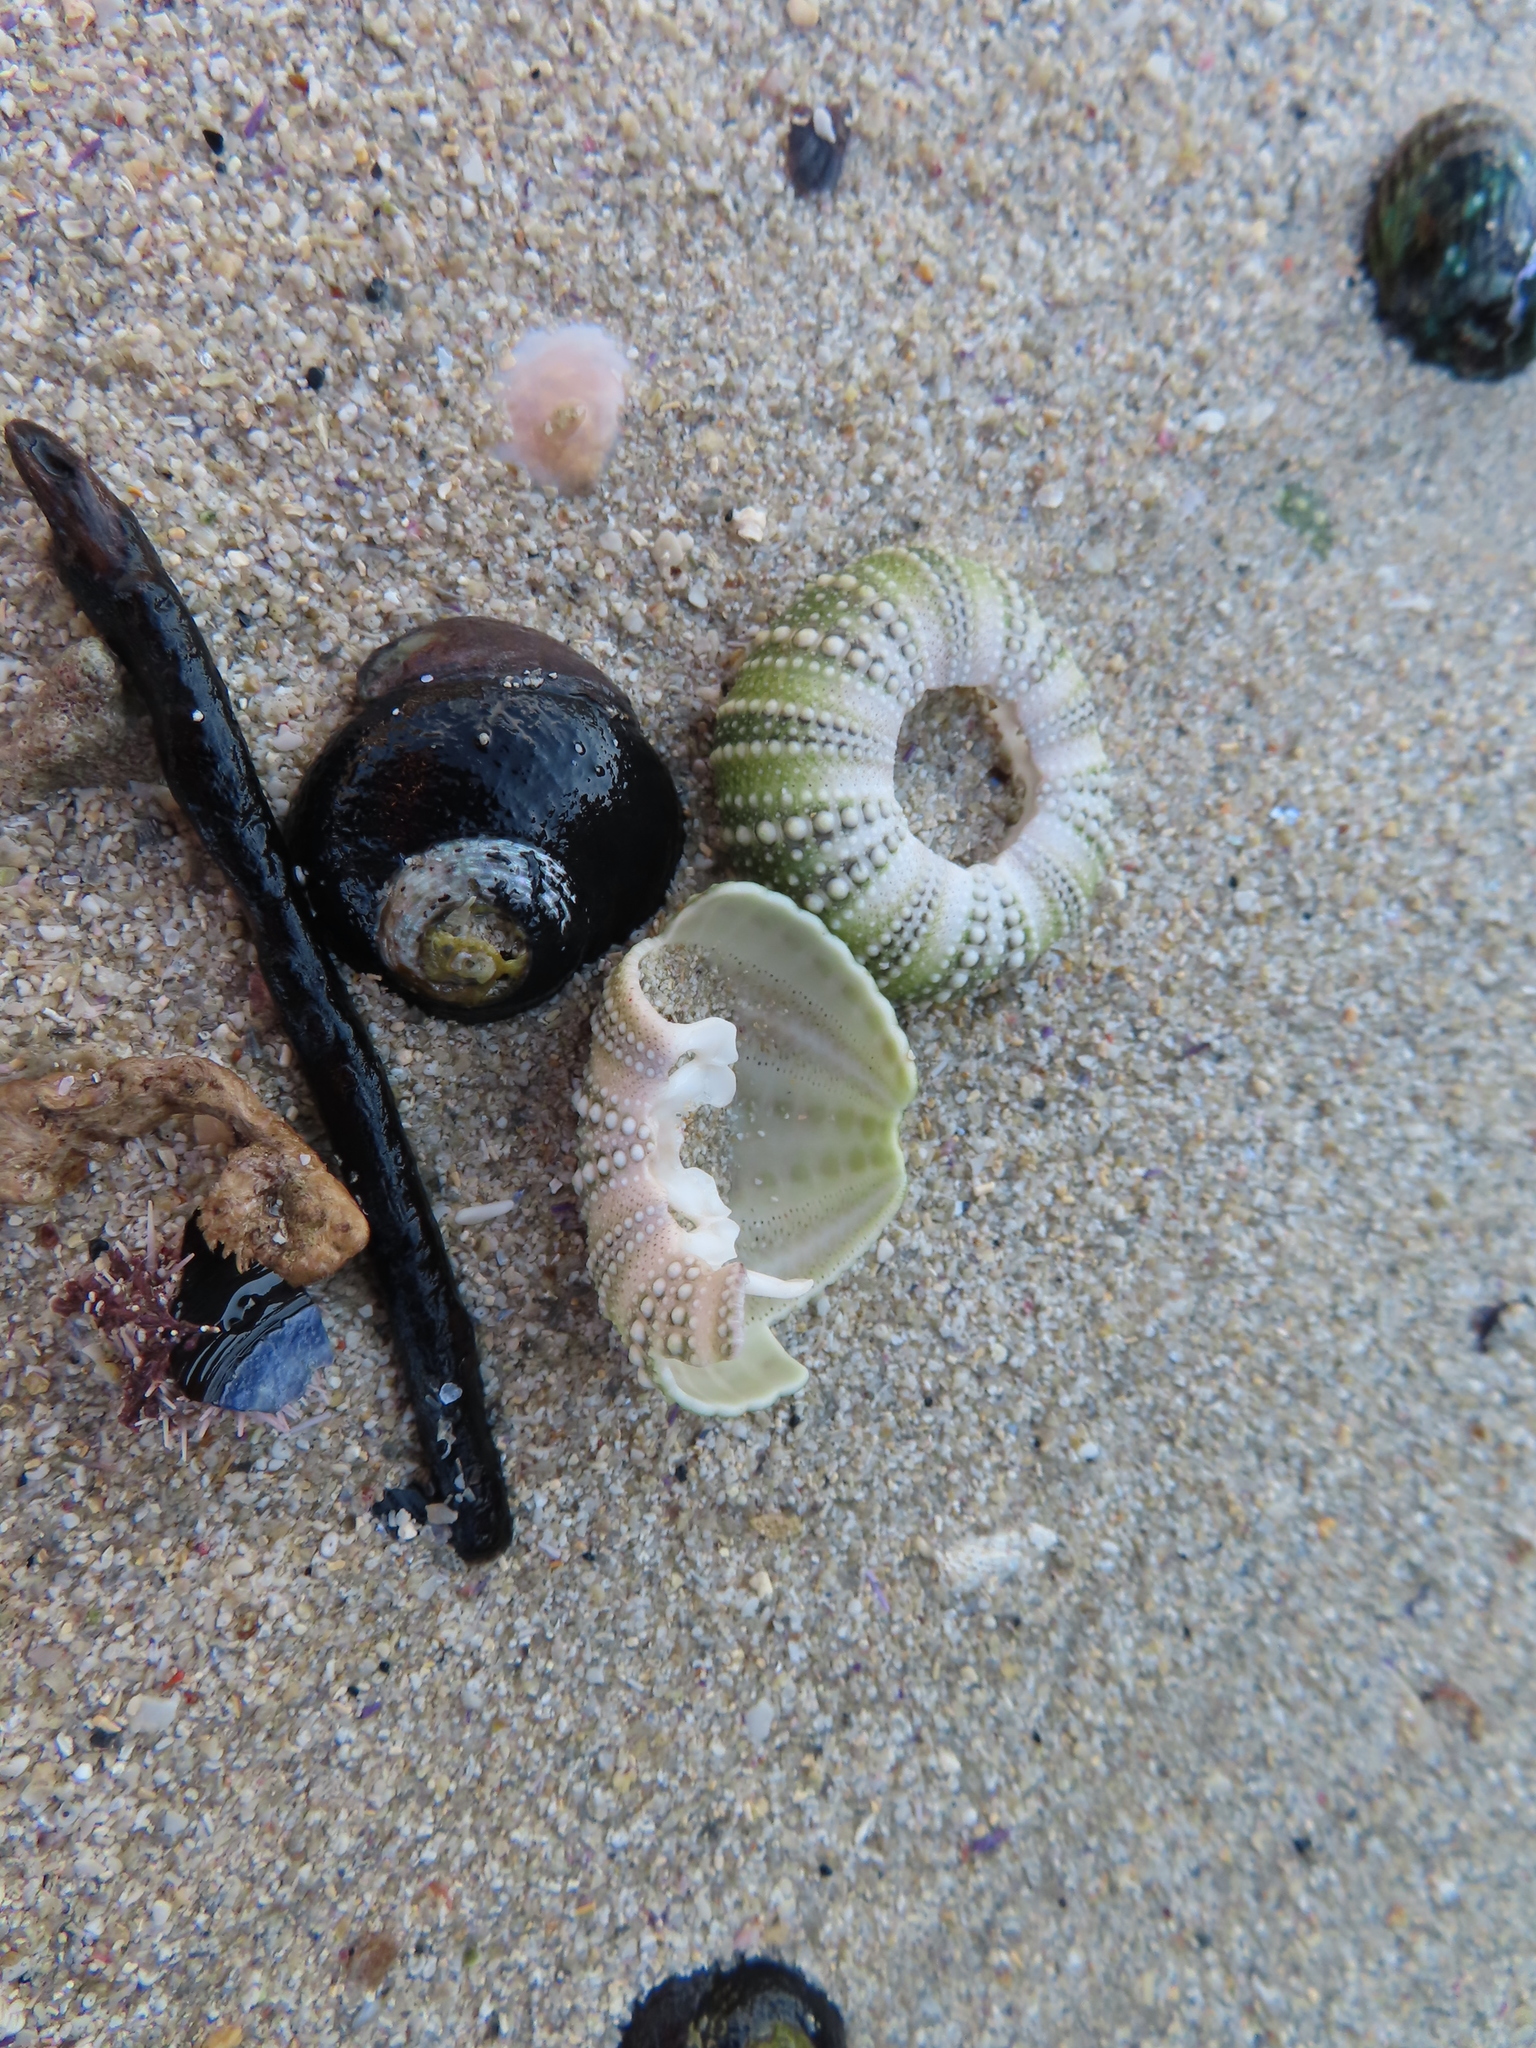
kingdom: Animalia
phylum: Echinodermata
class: Echinoidea
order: Camarodonta
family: Parechinidae
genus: Parechinus
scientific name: Parechinus angulosus
